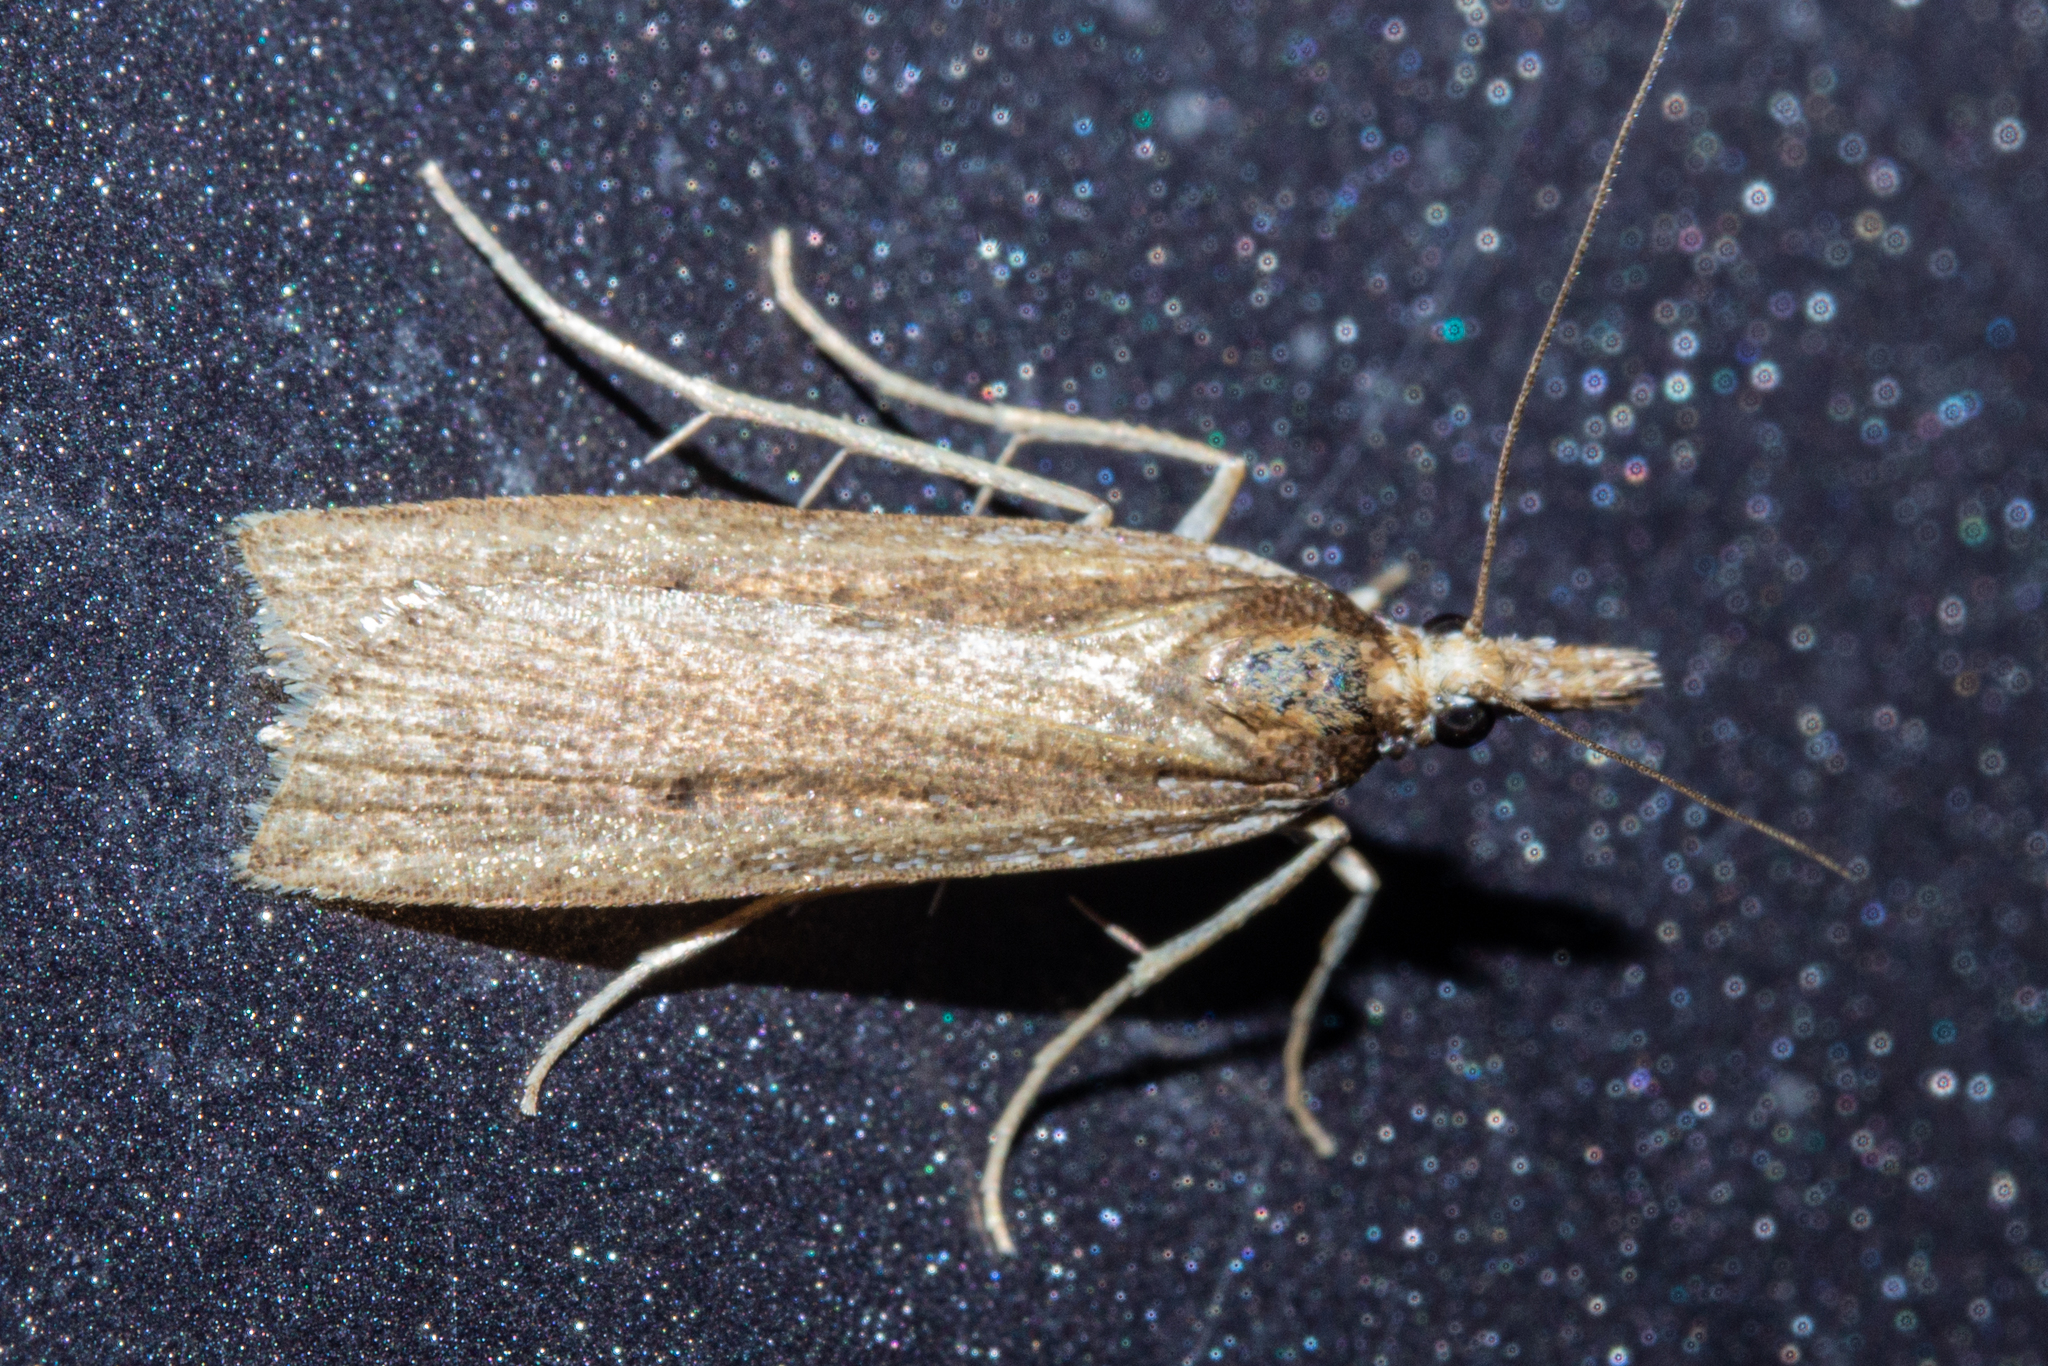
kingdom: Animalia
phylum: Arthropoda
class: Insecta
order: Lepidoptera
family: Crambidae
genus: Eudonia
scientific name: Eudonia sabulosella
